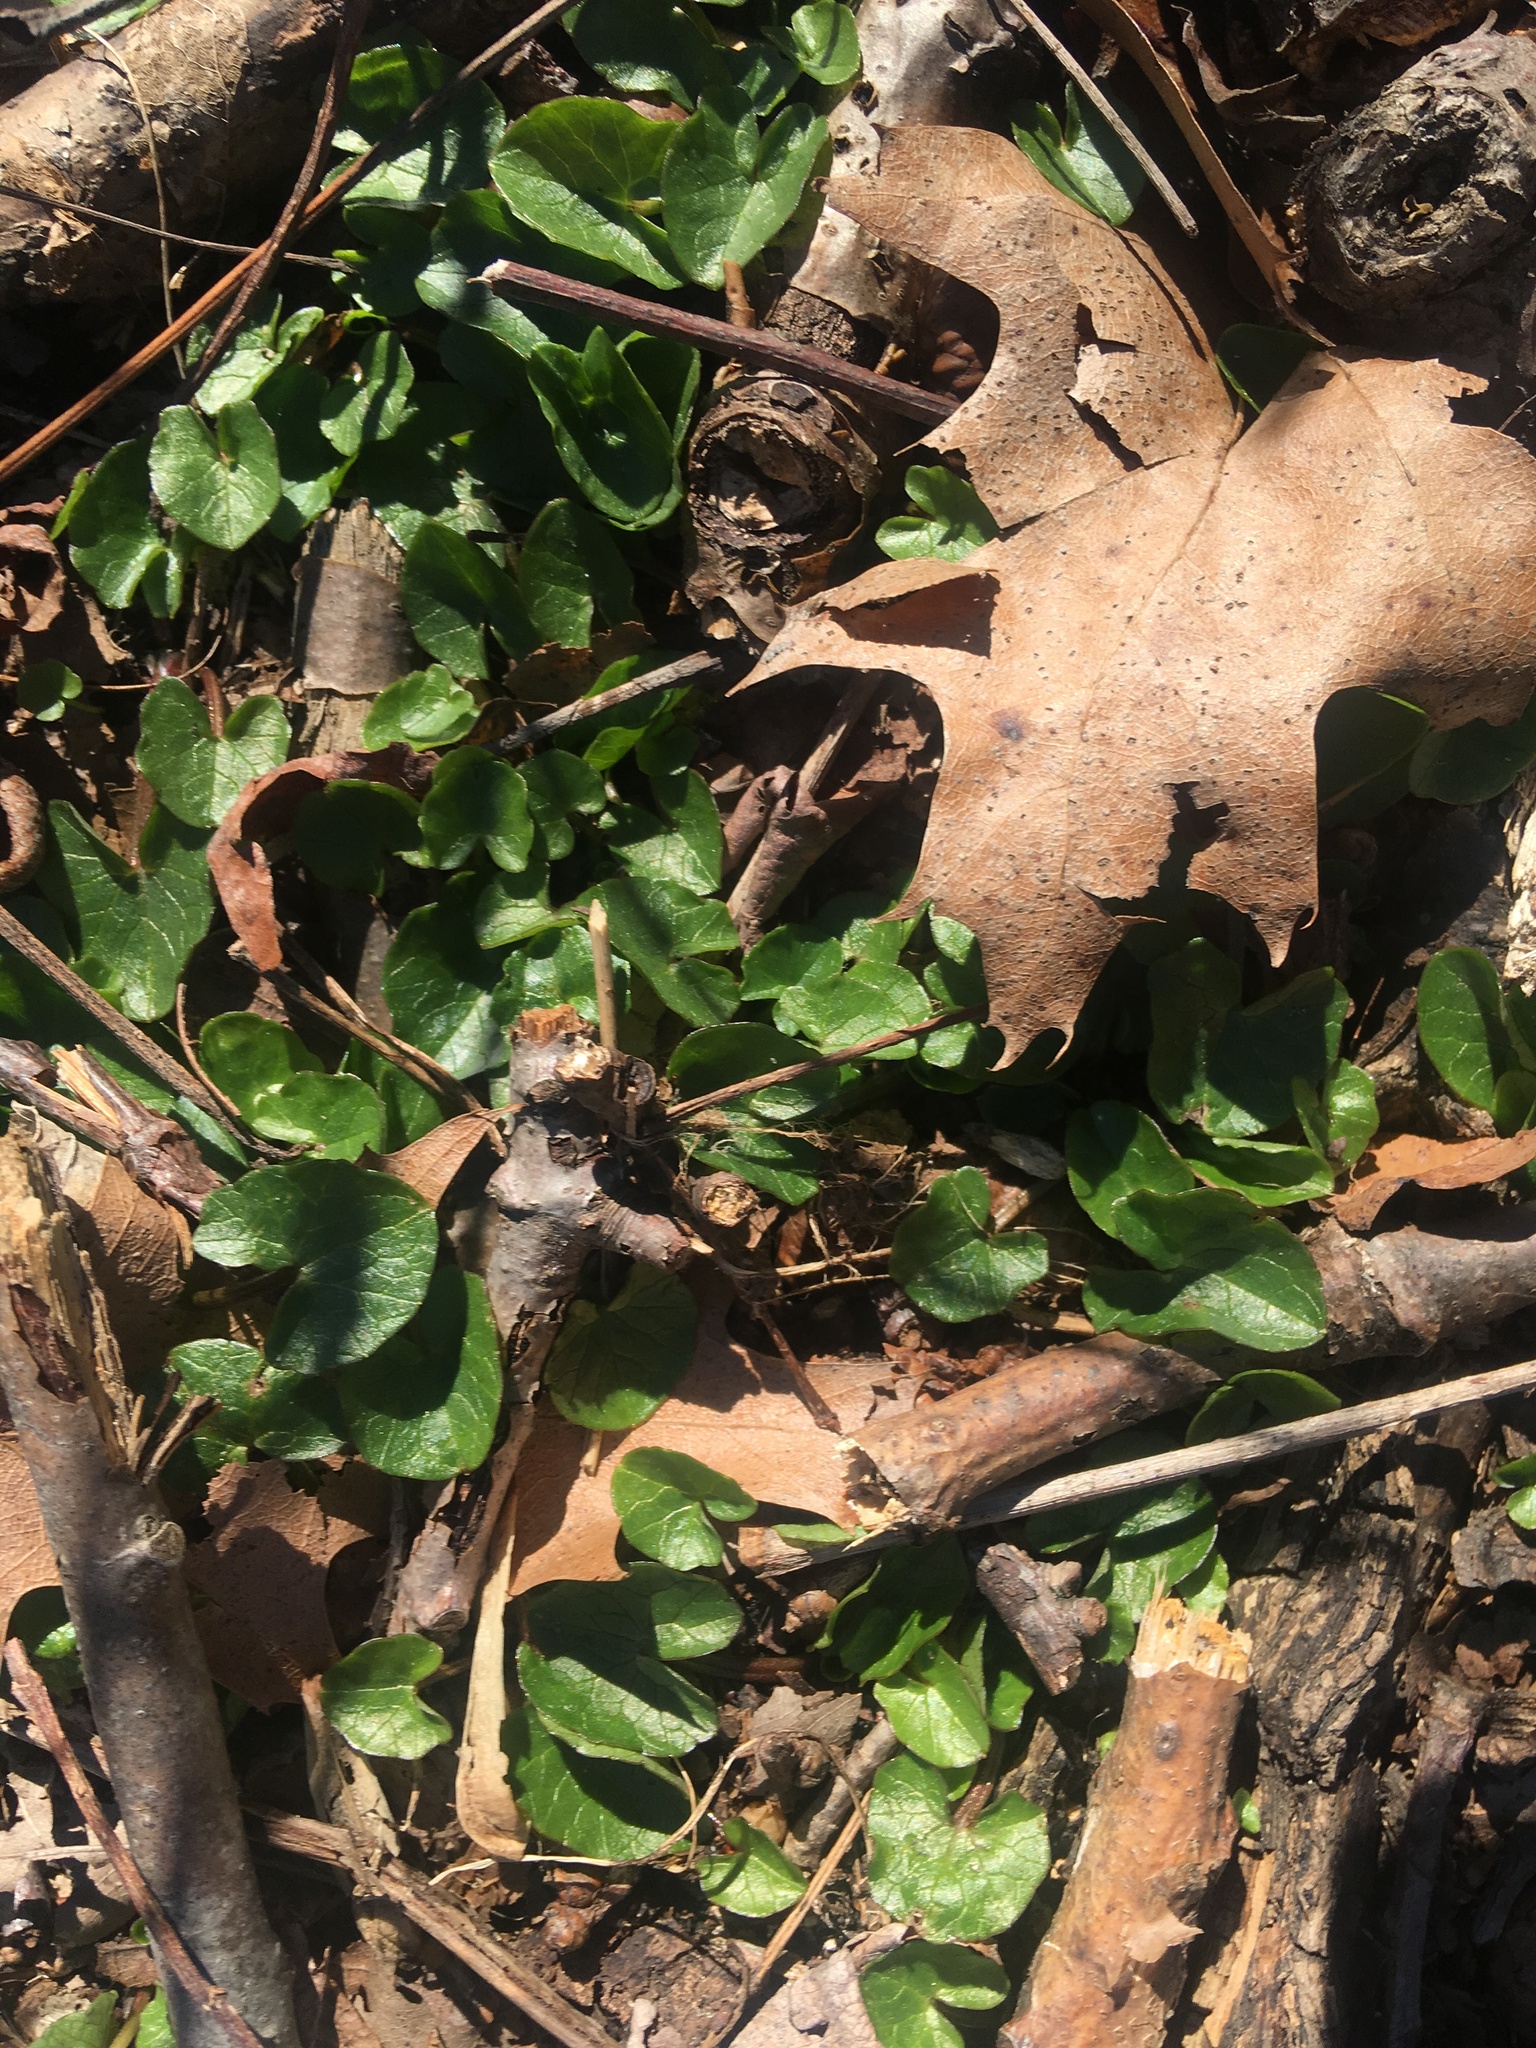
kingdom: Plantae
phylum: Tracheophyta
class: Magnoliopsida
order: Ranunculales
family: Ranunculaceae
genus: Ficaria
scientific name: Ficaria verna
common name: Lesser celandine
